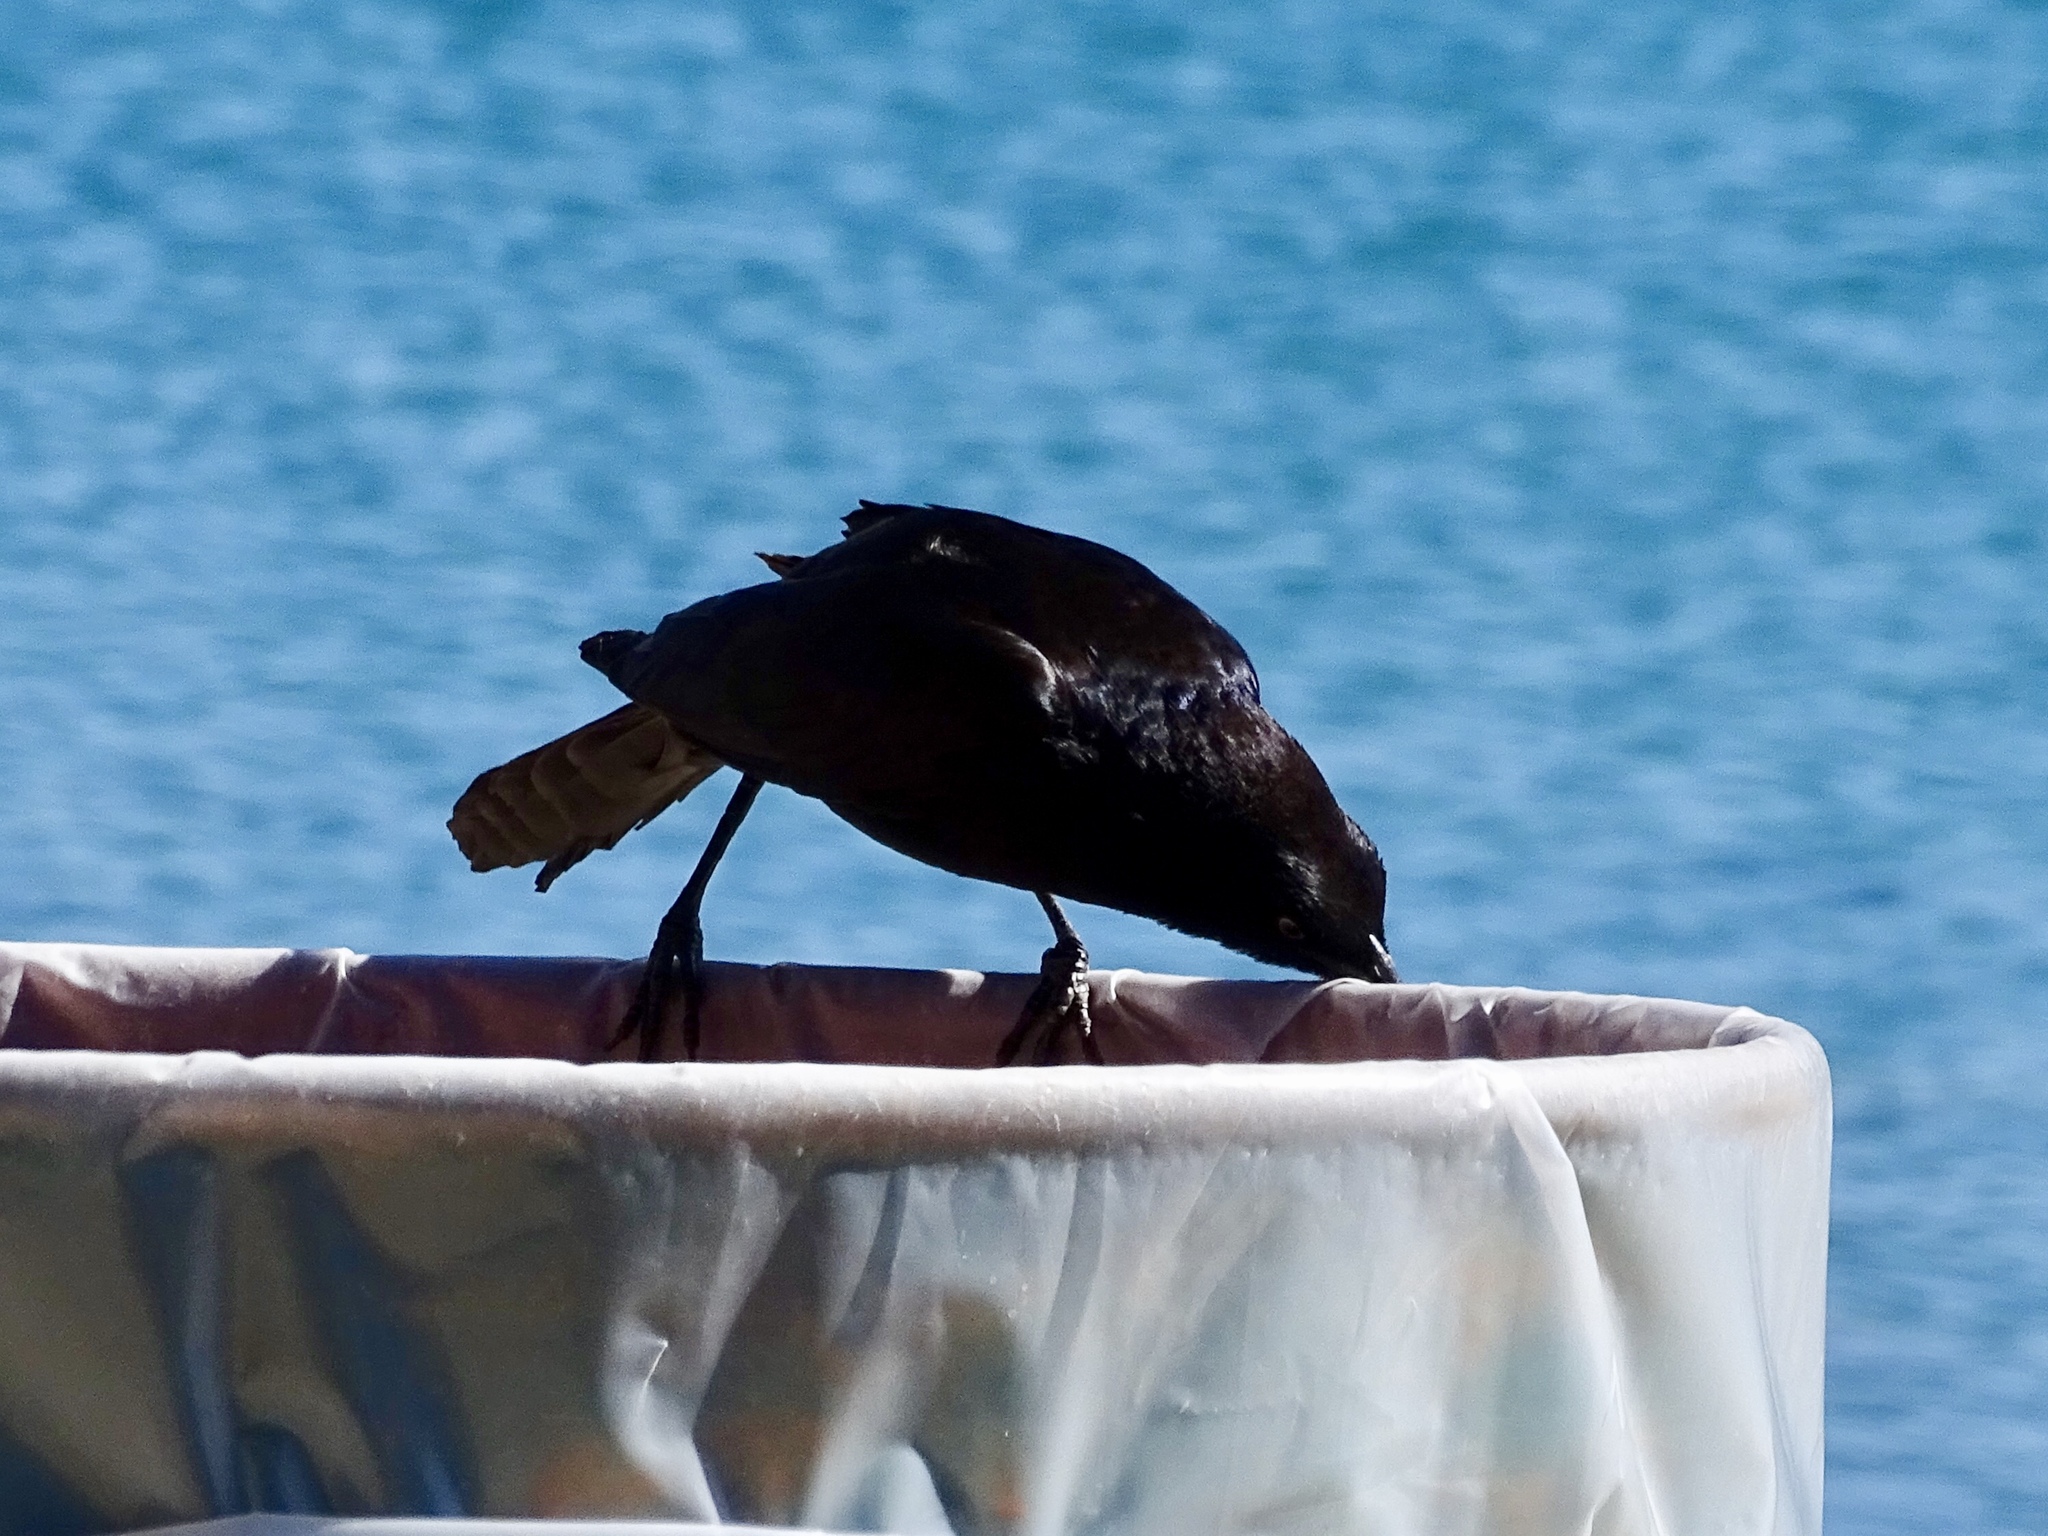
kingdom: Animalia
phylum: Chordata
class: Aves
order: Passeriformes
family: Icteridae
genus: Quiscalus
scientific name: Quiscalus mexicanus
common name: Great-tailed grackle
